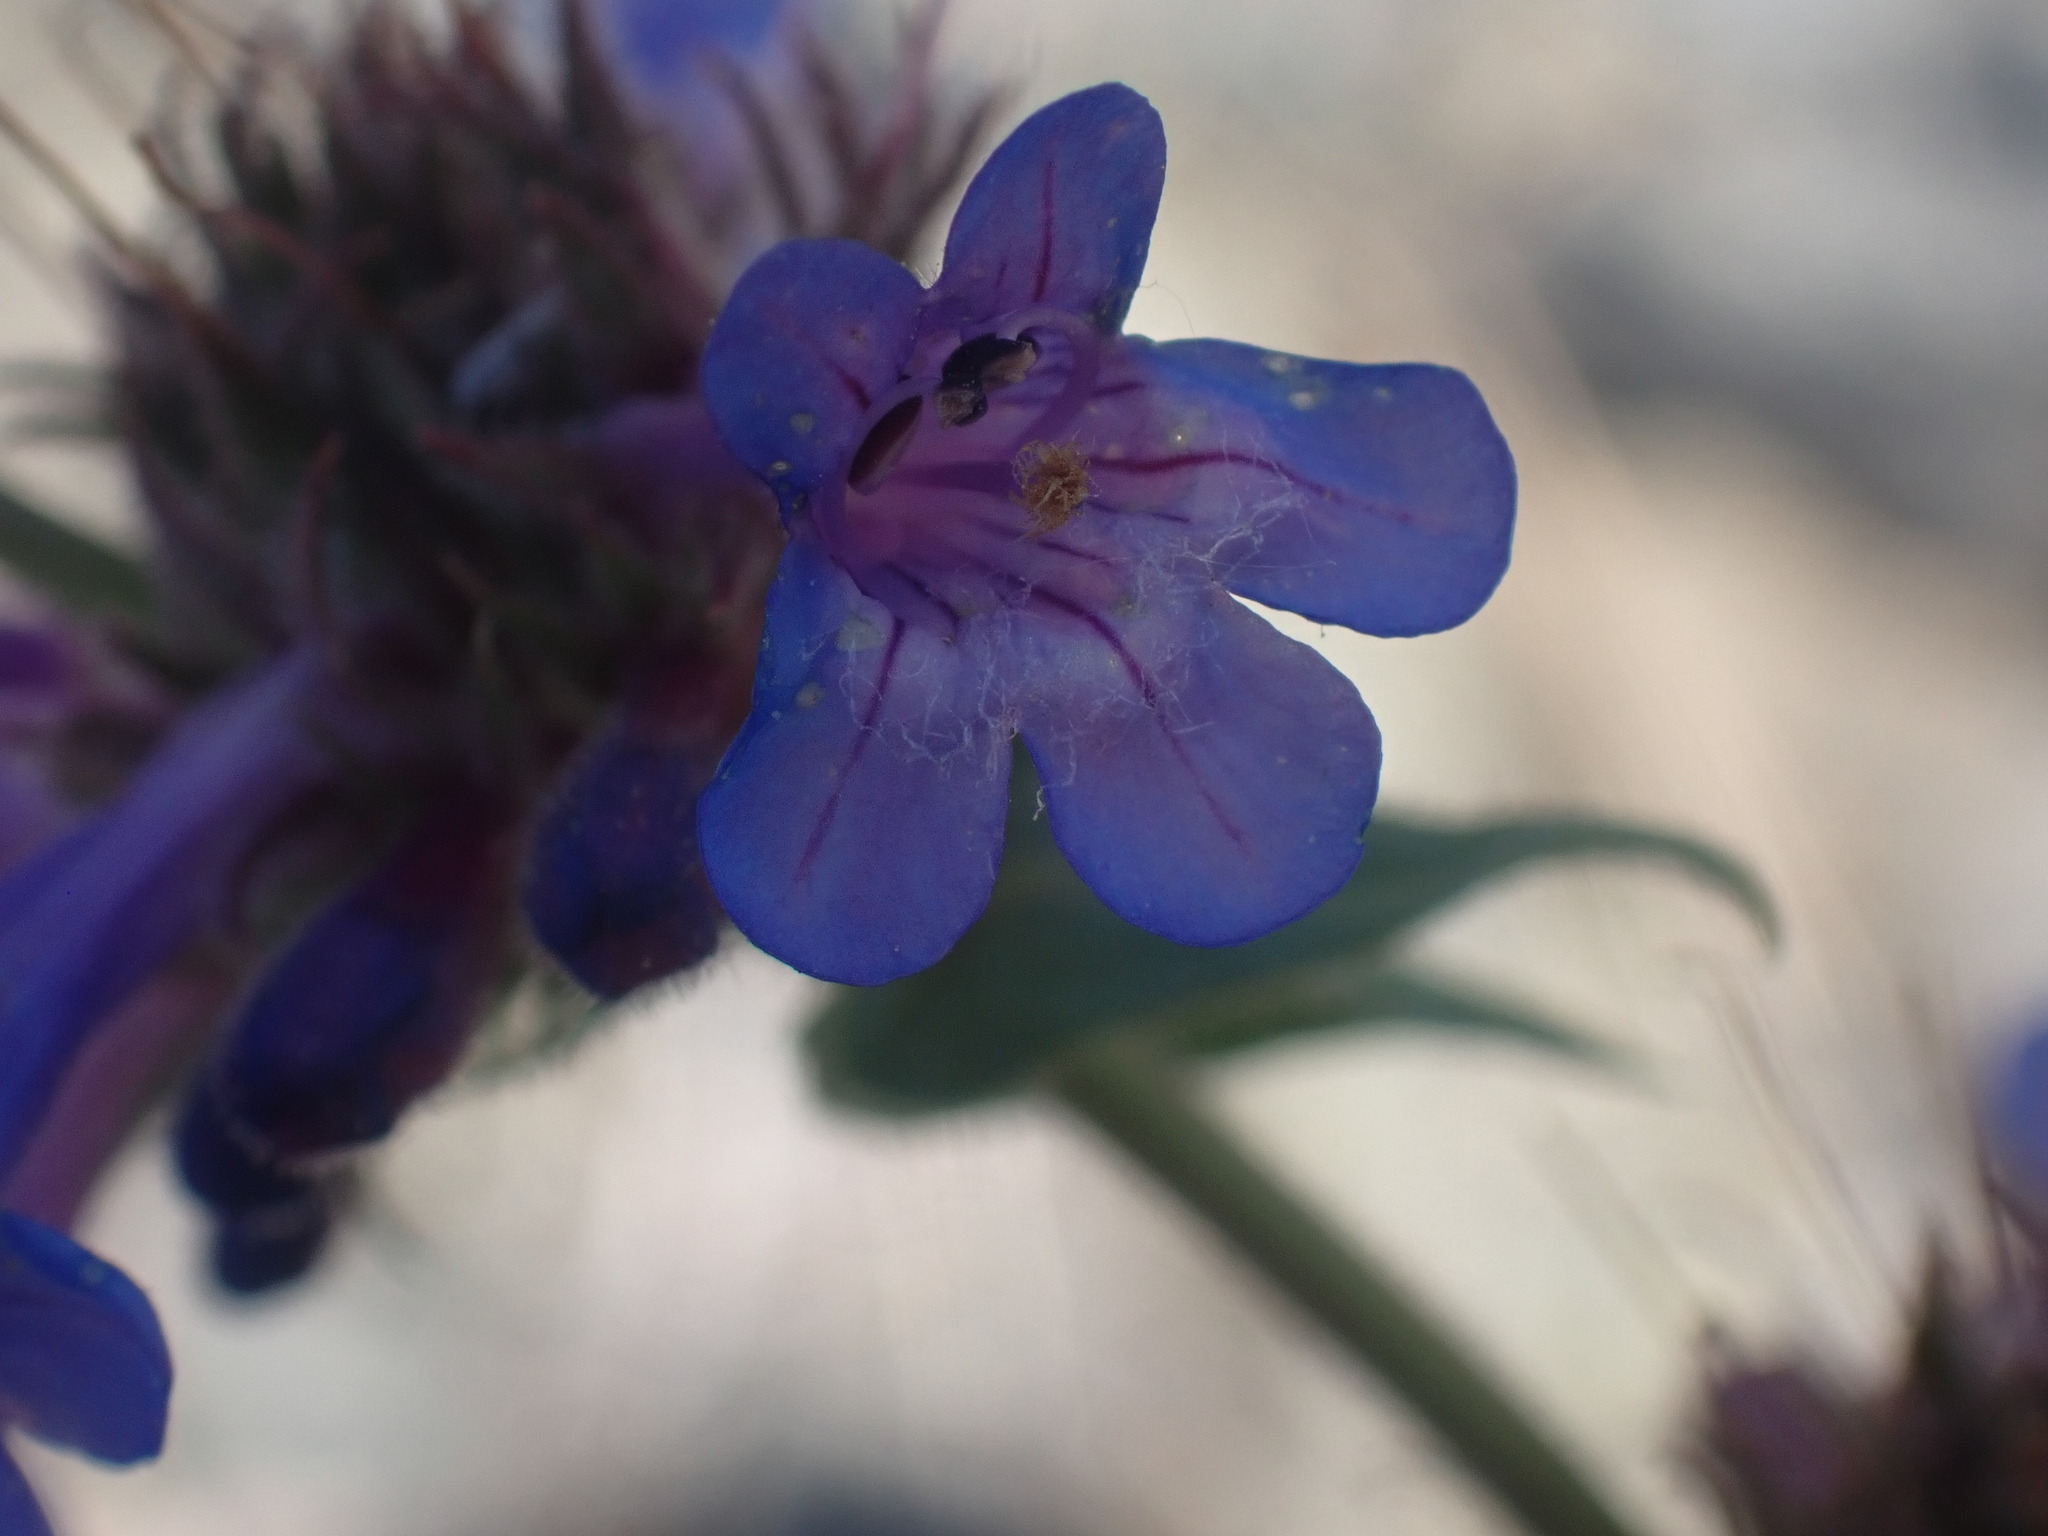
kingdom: Plantae
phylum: Tracheophyta
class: Magnoliopsida
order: Lamiales
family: Plantaginaceae
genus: Penstemon
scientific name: Penstemon pruinosus
